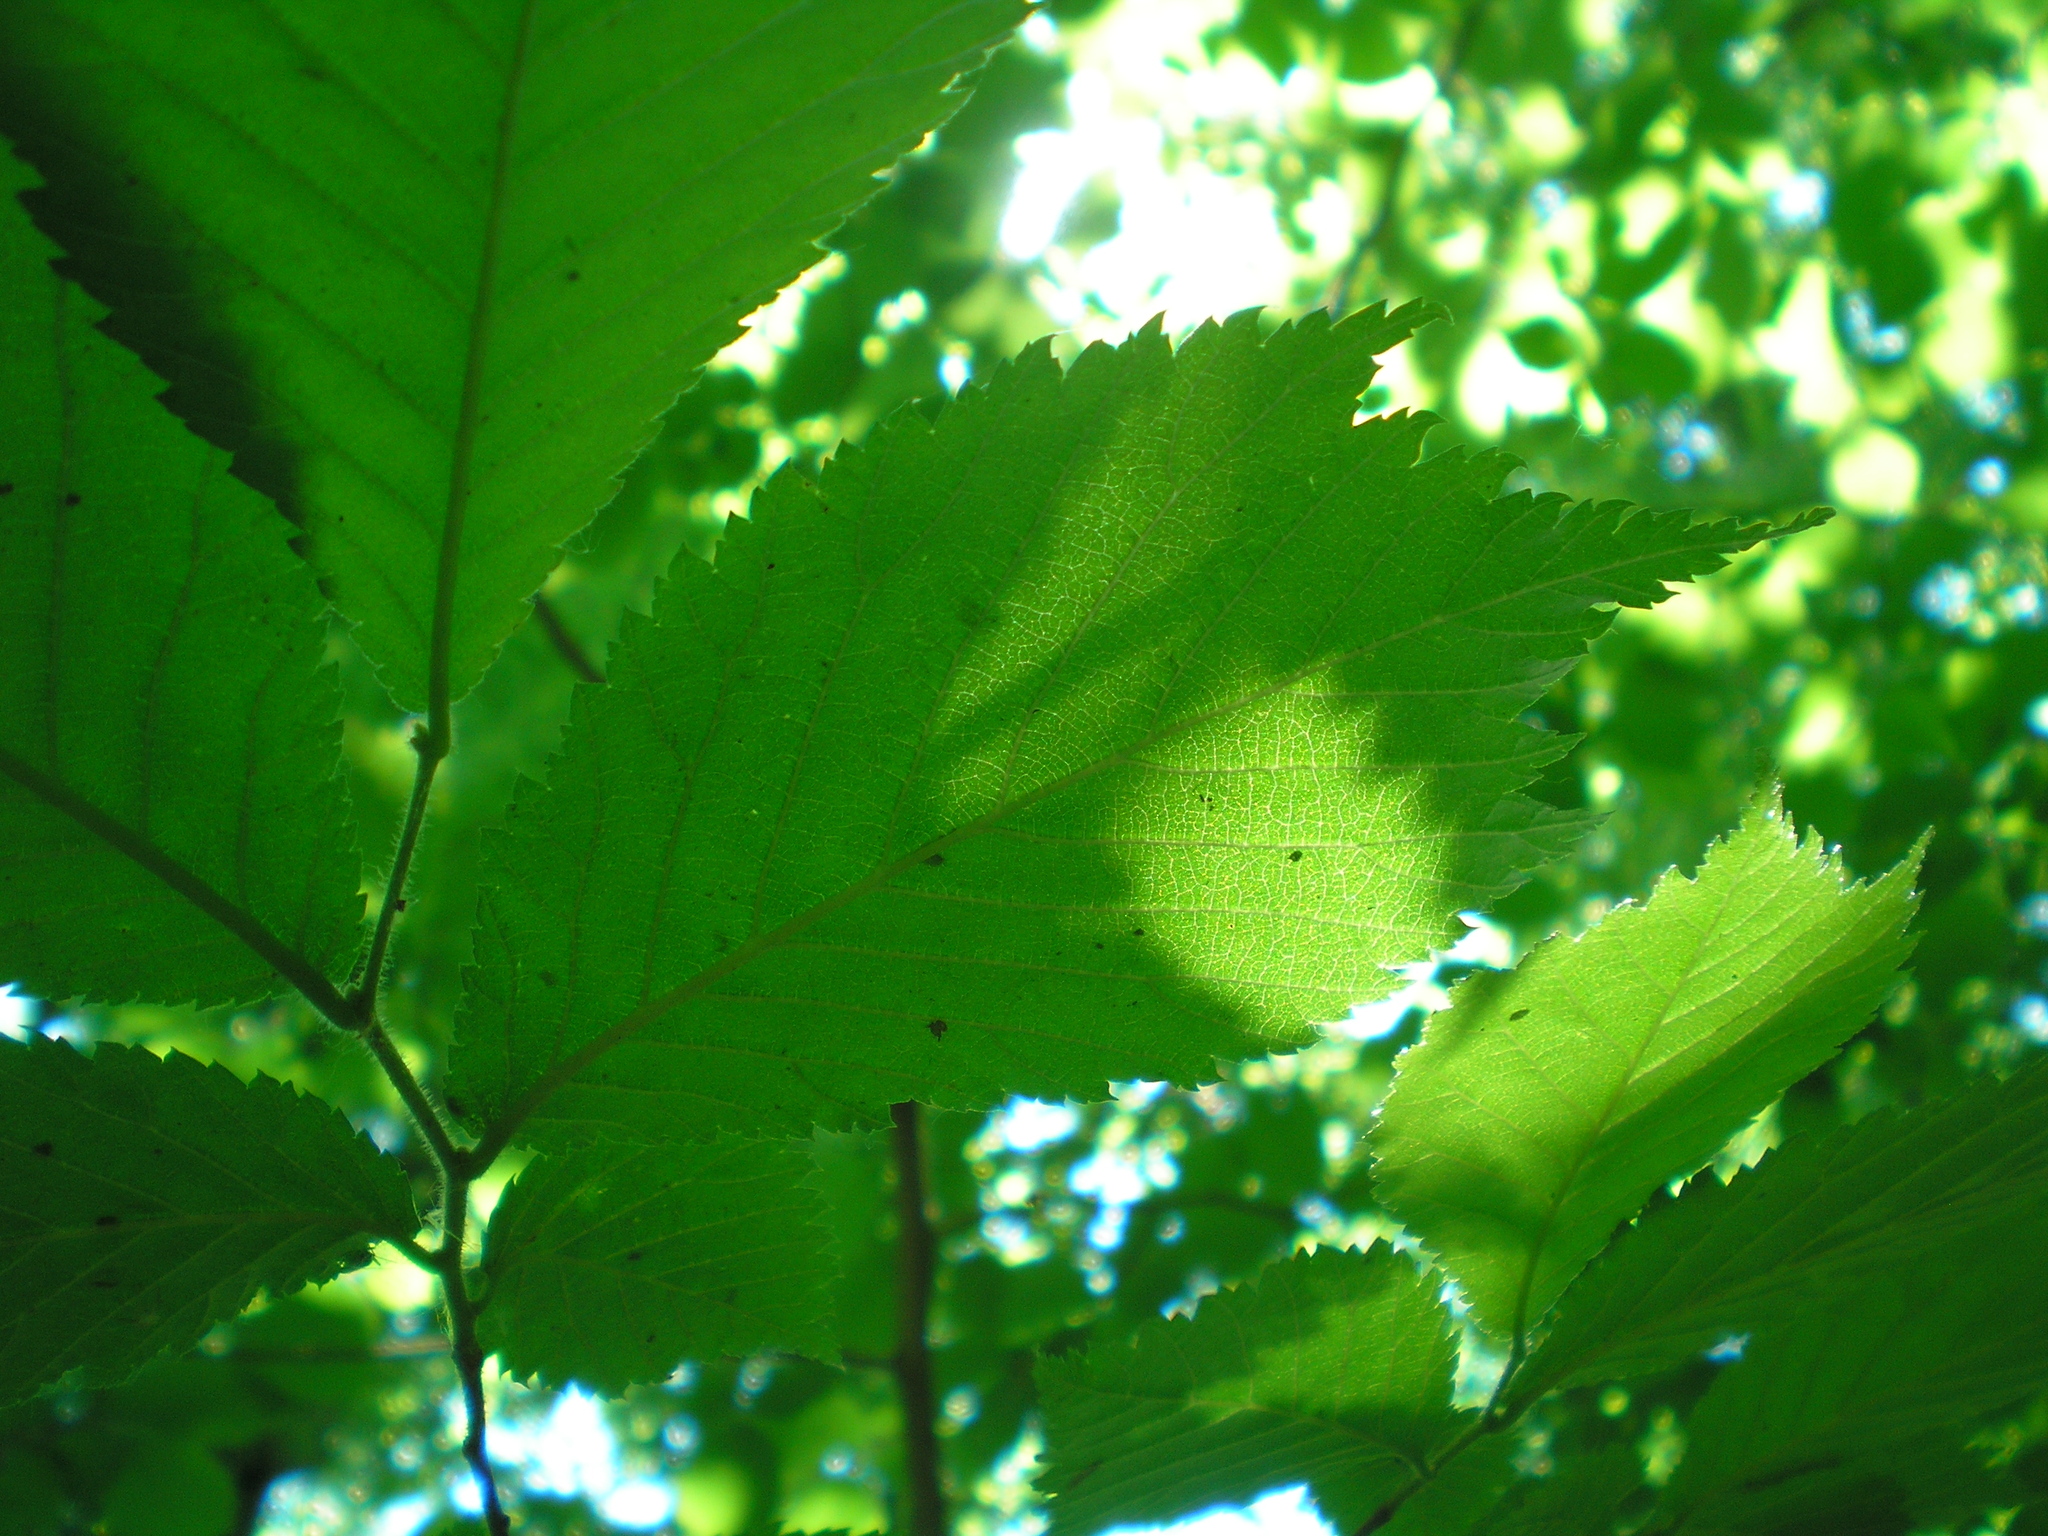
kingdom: Plantae
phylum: Tracheophyta
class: Magnoliopsida
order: Rosales
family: Ulmaceae
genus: Ulmus
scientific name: Ulmus glabra
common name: Wych elm
